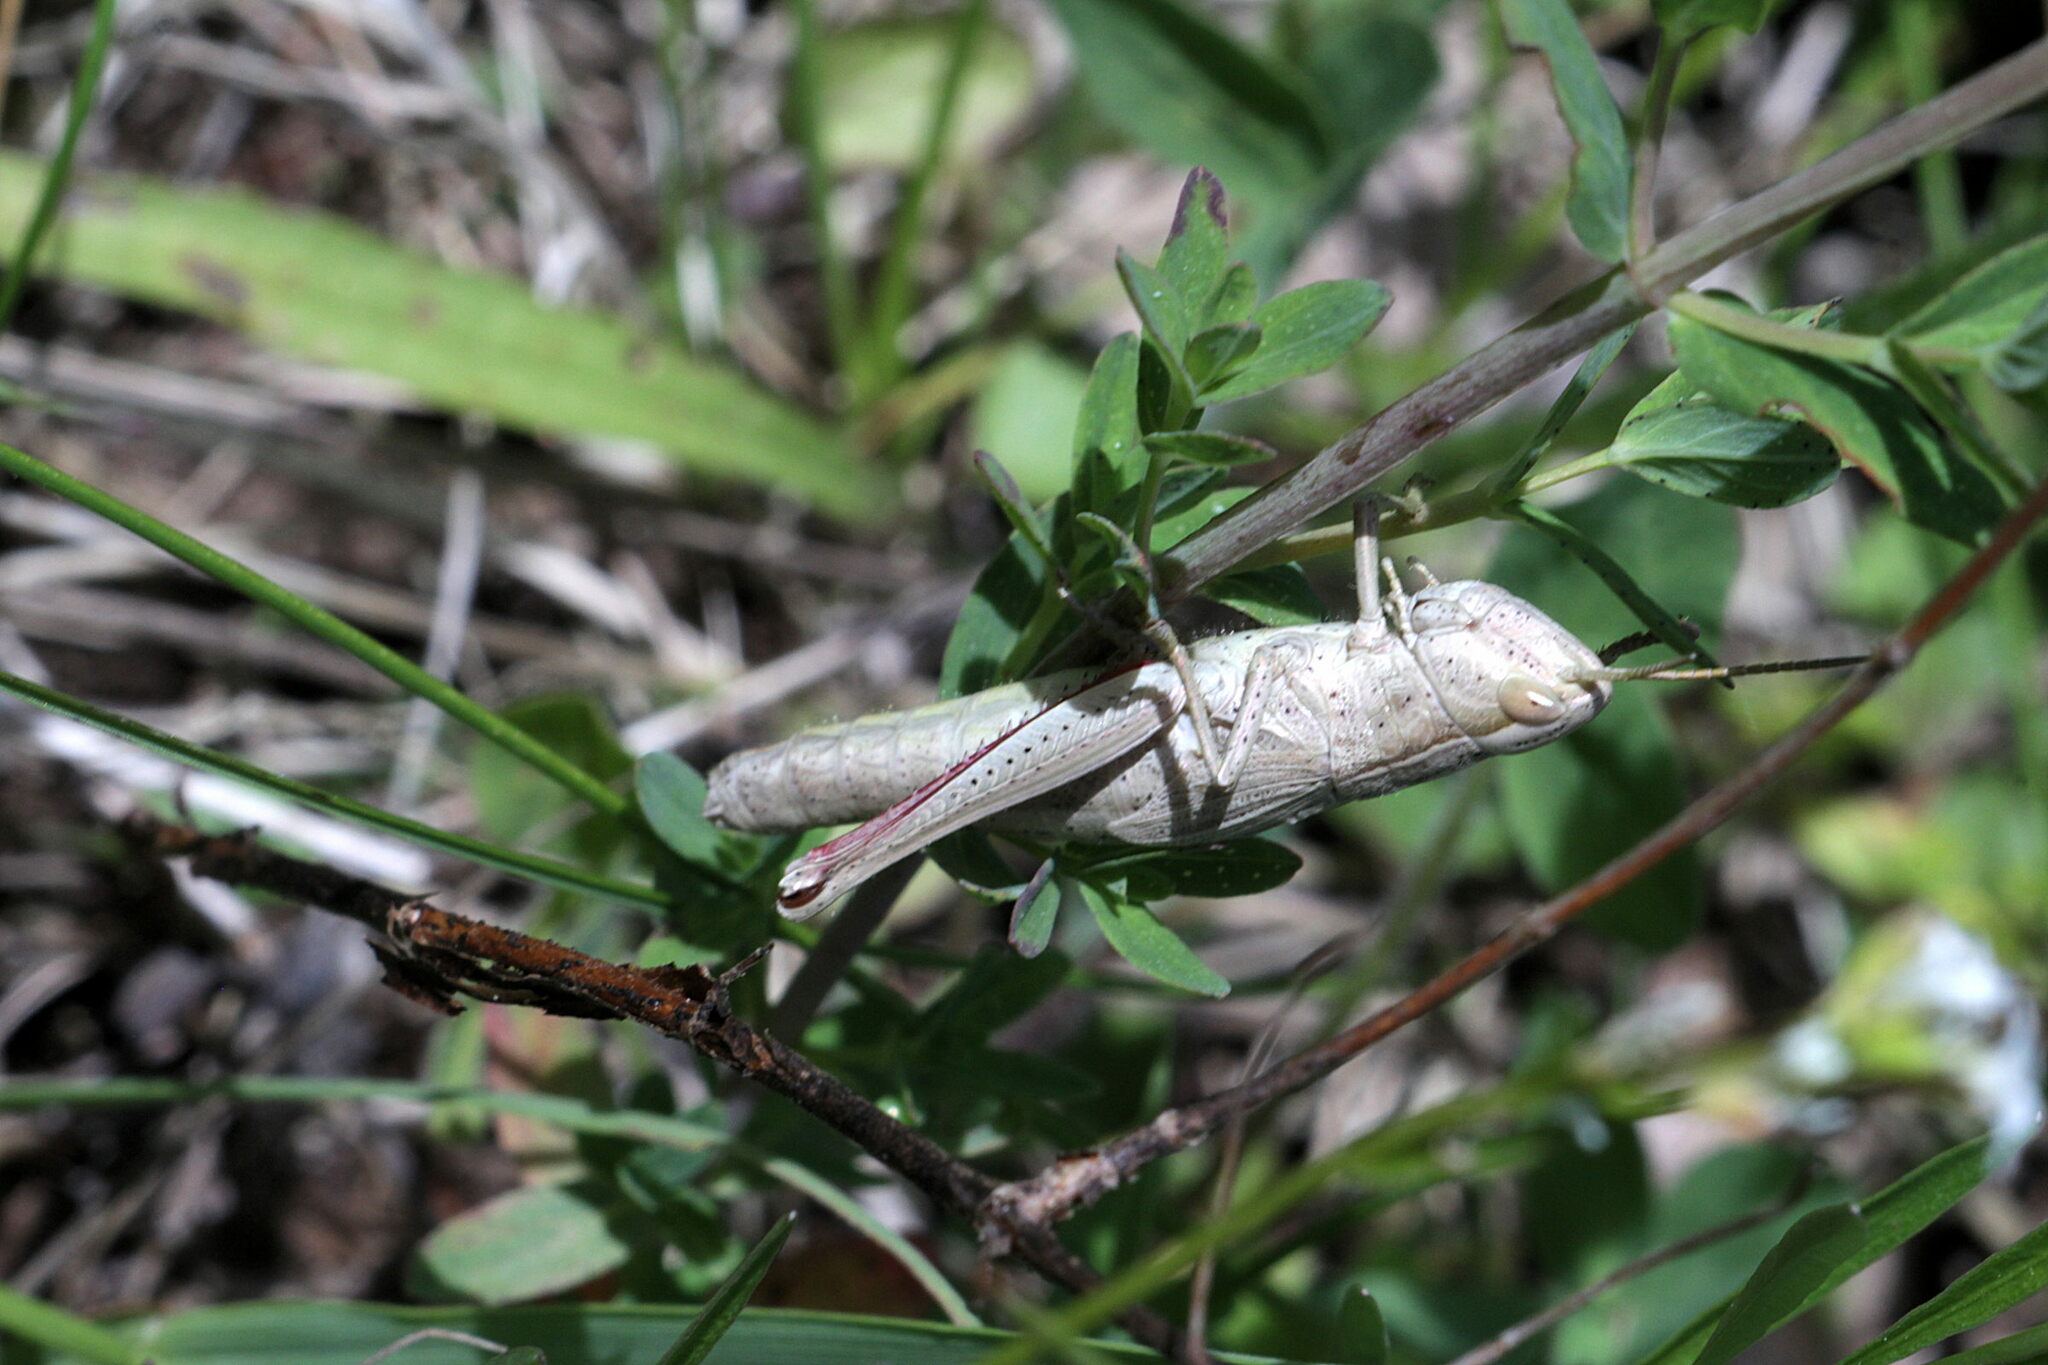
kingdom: Animalia
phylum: Arthropoda
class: Insecta
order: Orthoptera
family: Acrididae
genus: Chrysochraon
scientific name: Chrysochraon dispar
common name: Large gold grasshopper
